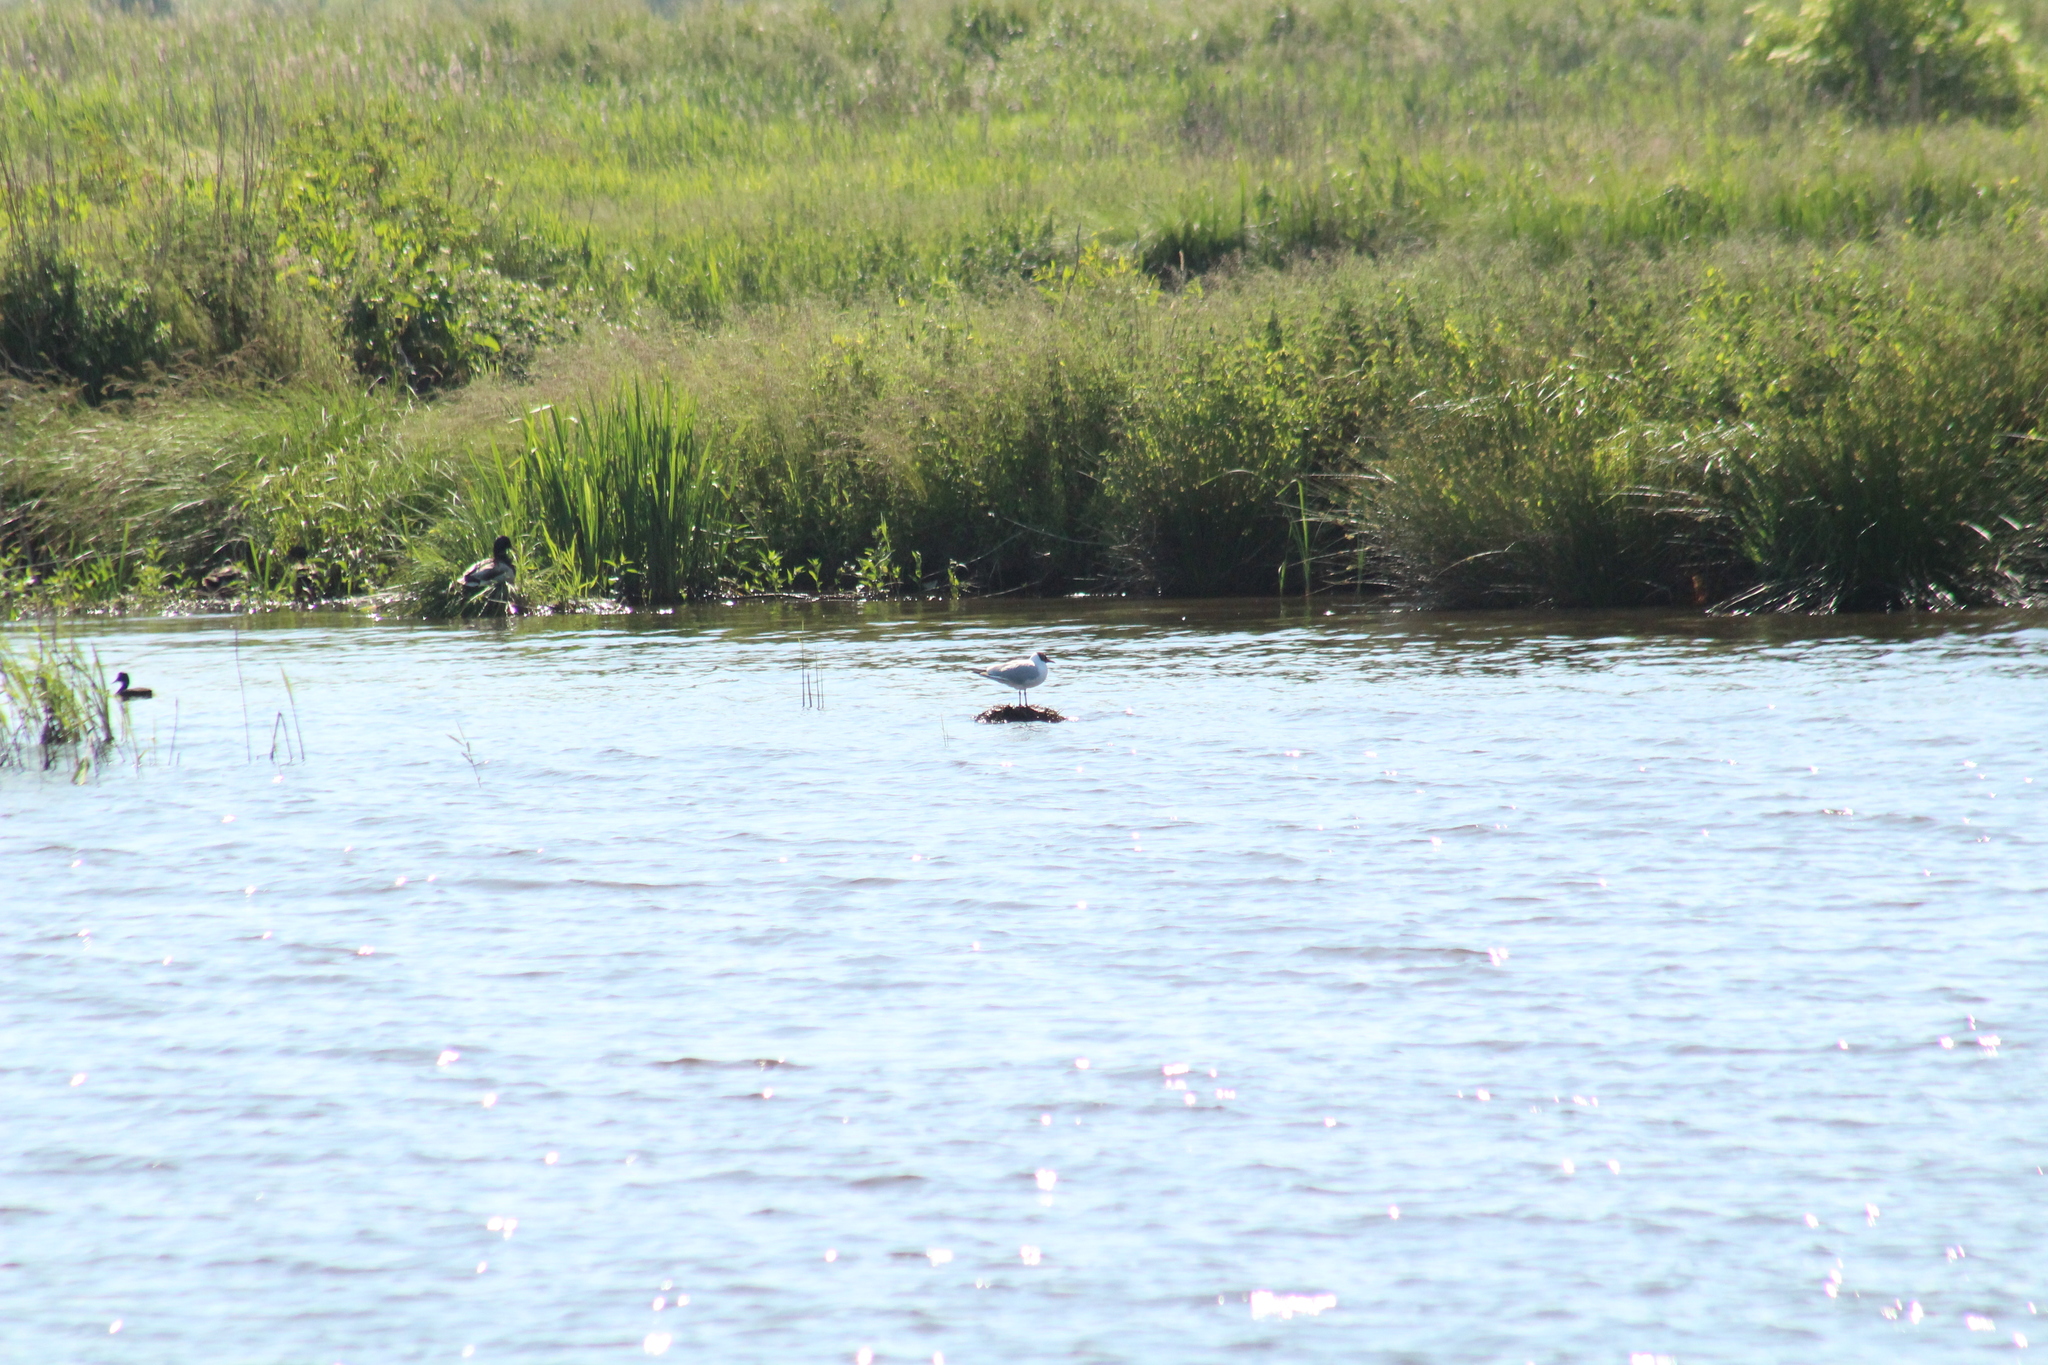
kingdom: Animalia
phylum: Chordata
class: Aves
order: Charadriiformes
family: Laridae
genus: Chroicocephalus
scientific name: Chroicocephalus ridibundus
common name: Black-headed gull
